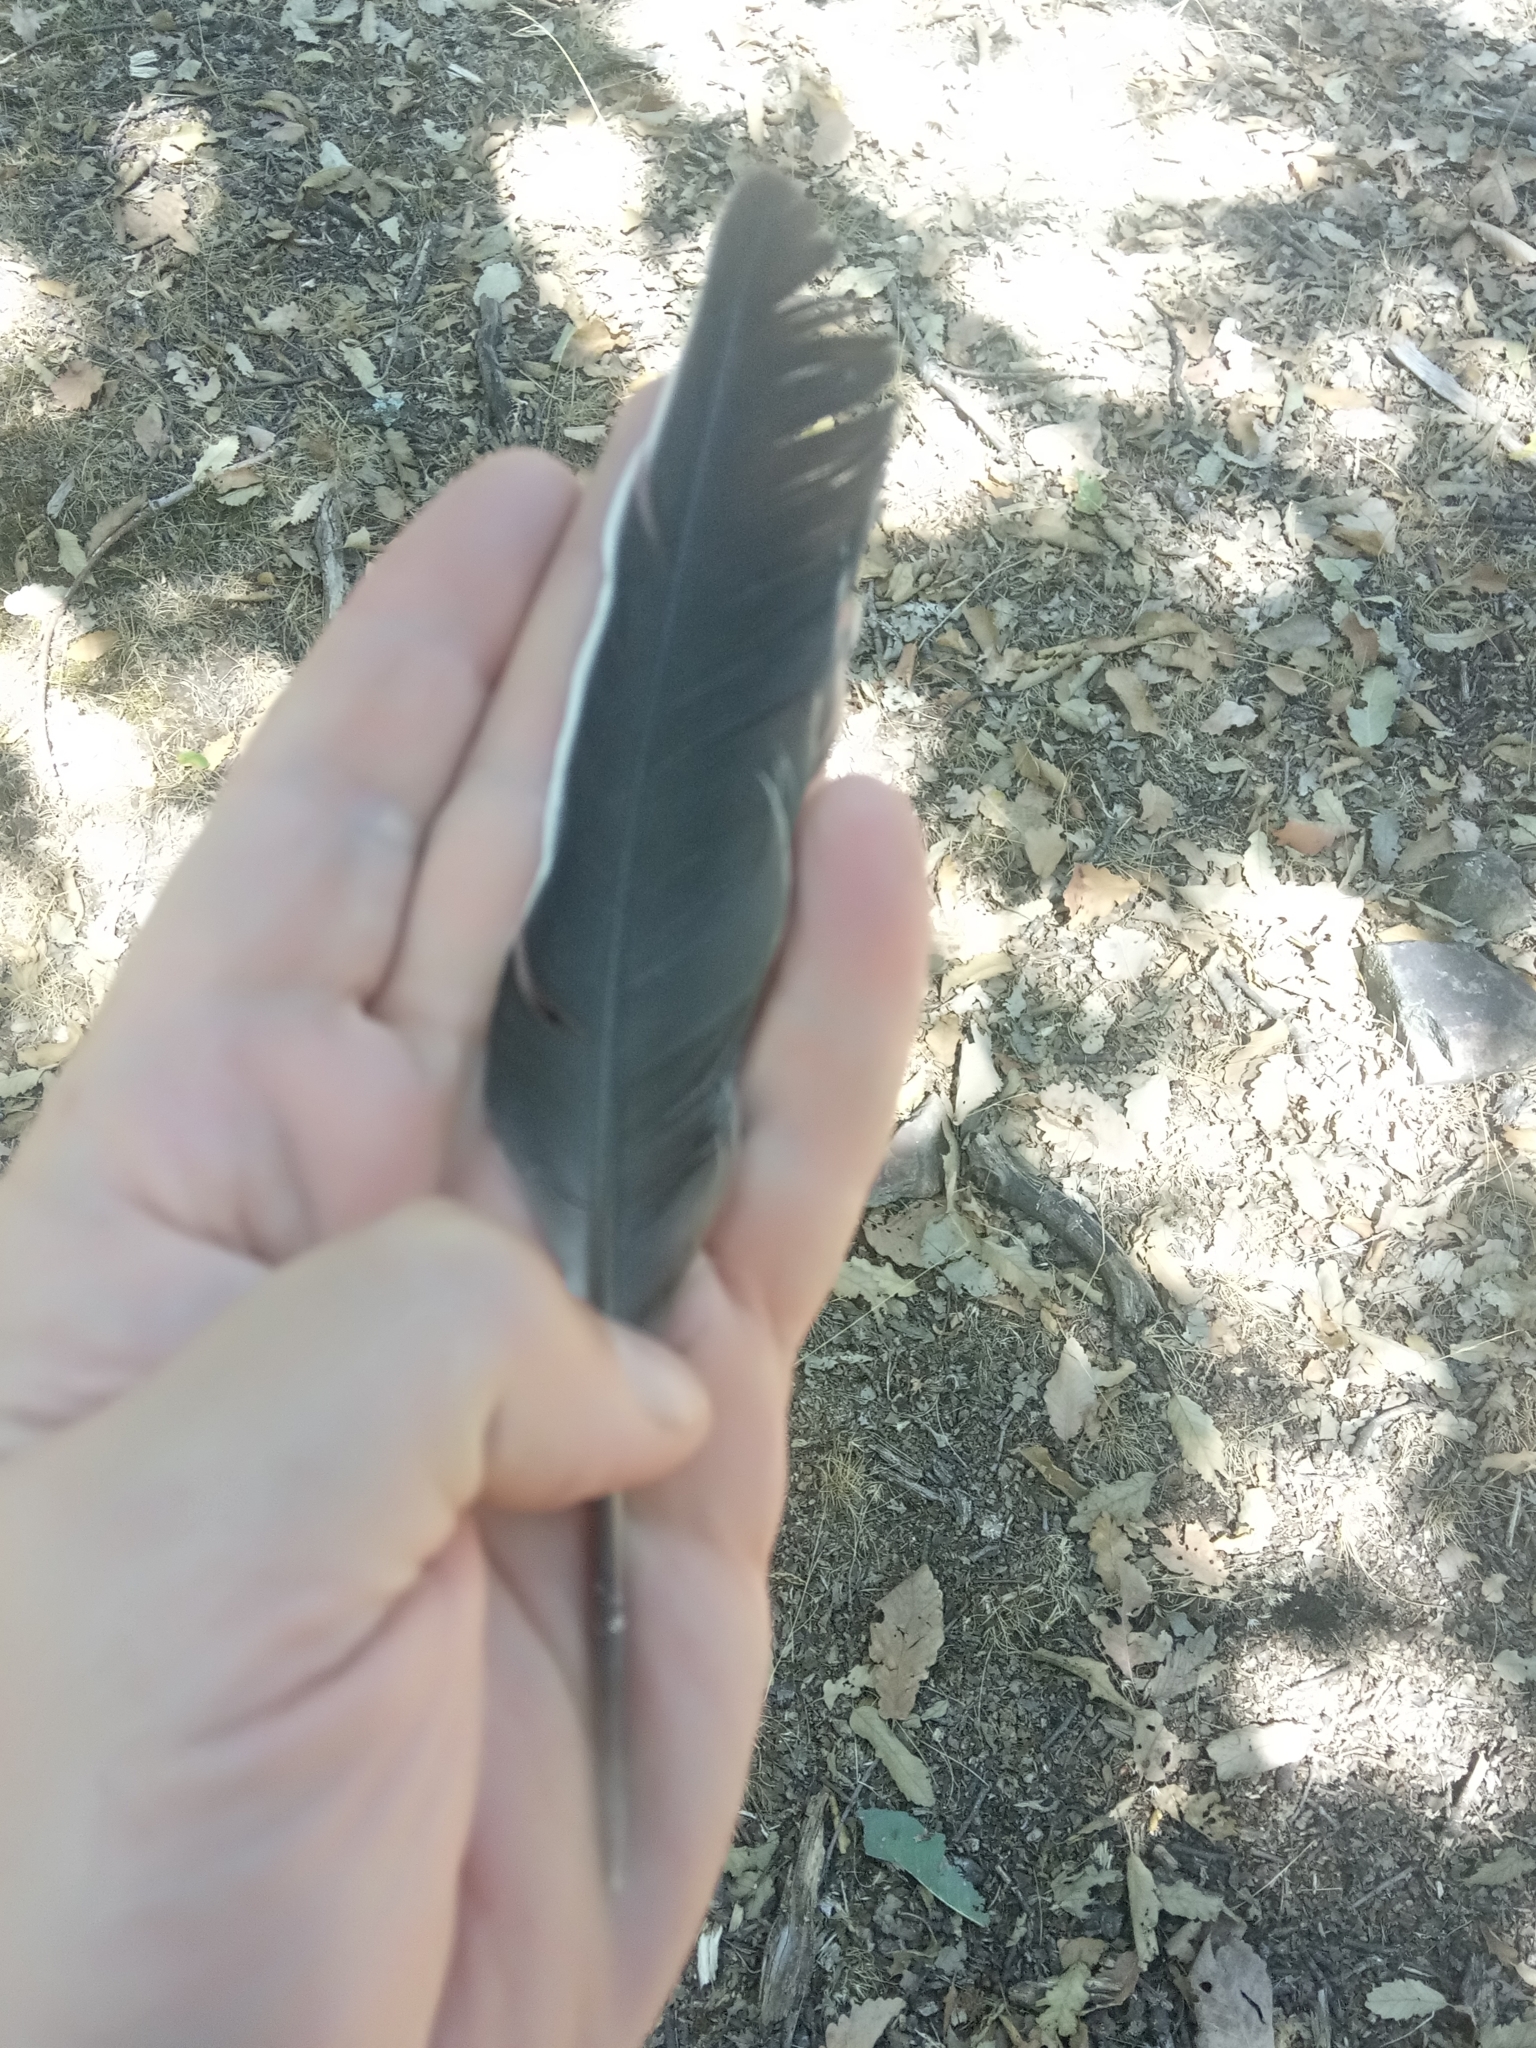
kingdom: Animalia
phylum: Chordata
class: Aves
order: Columbiformes
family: Columbidae
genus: Columba
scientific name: Columba palumbus
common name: Common wood pigeon
